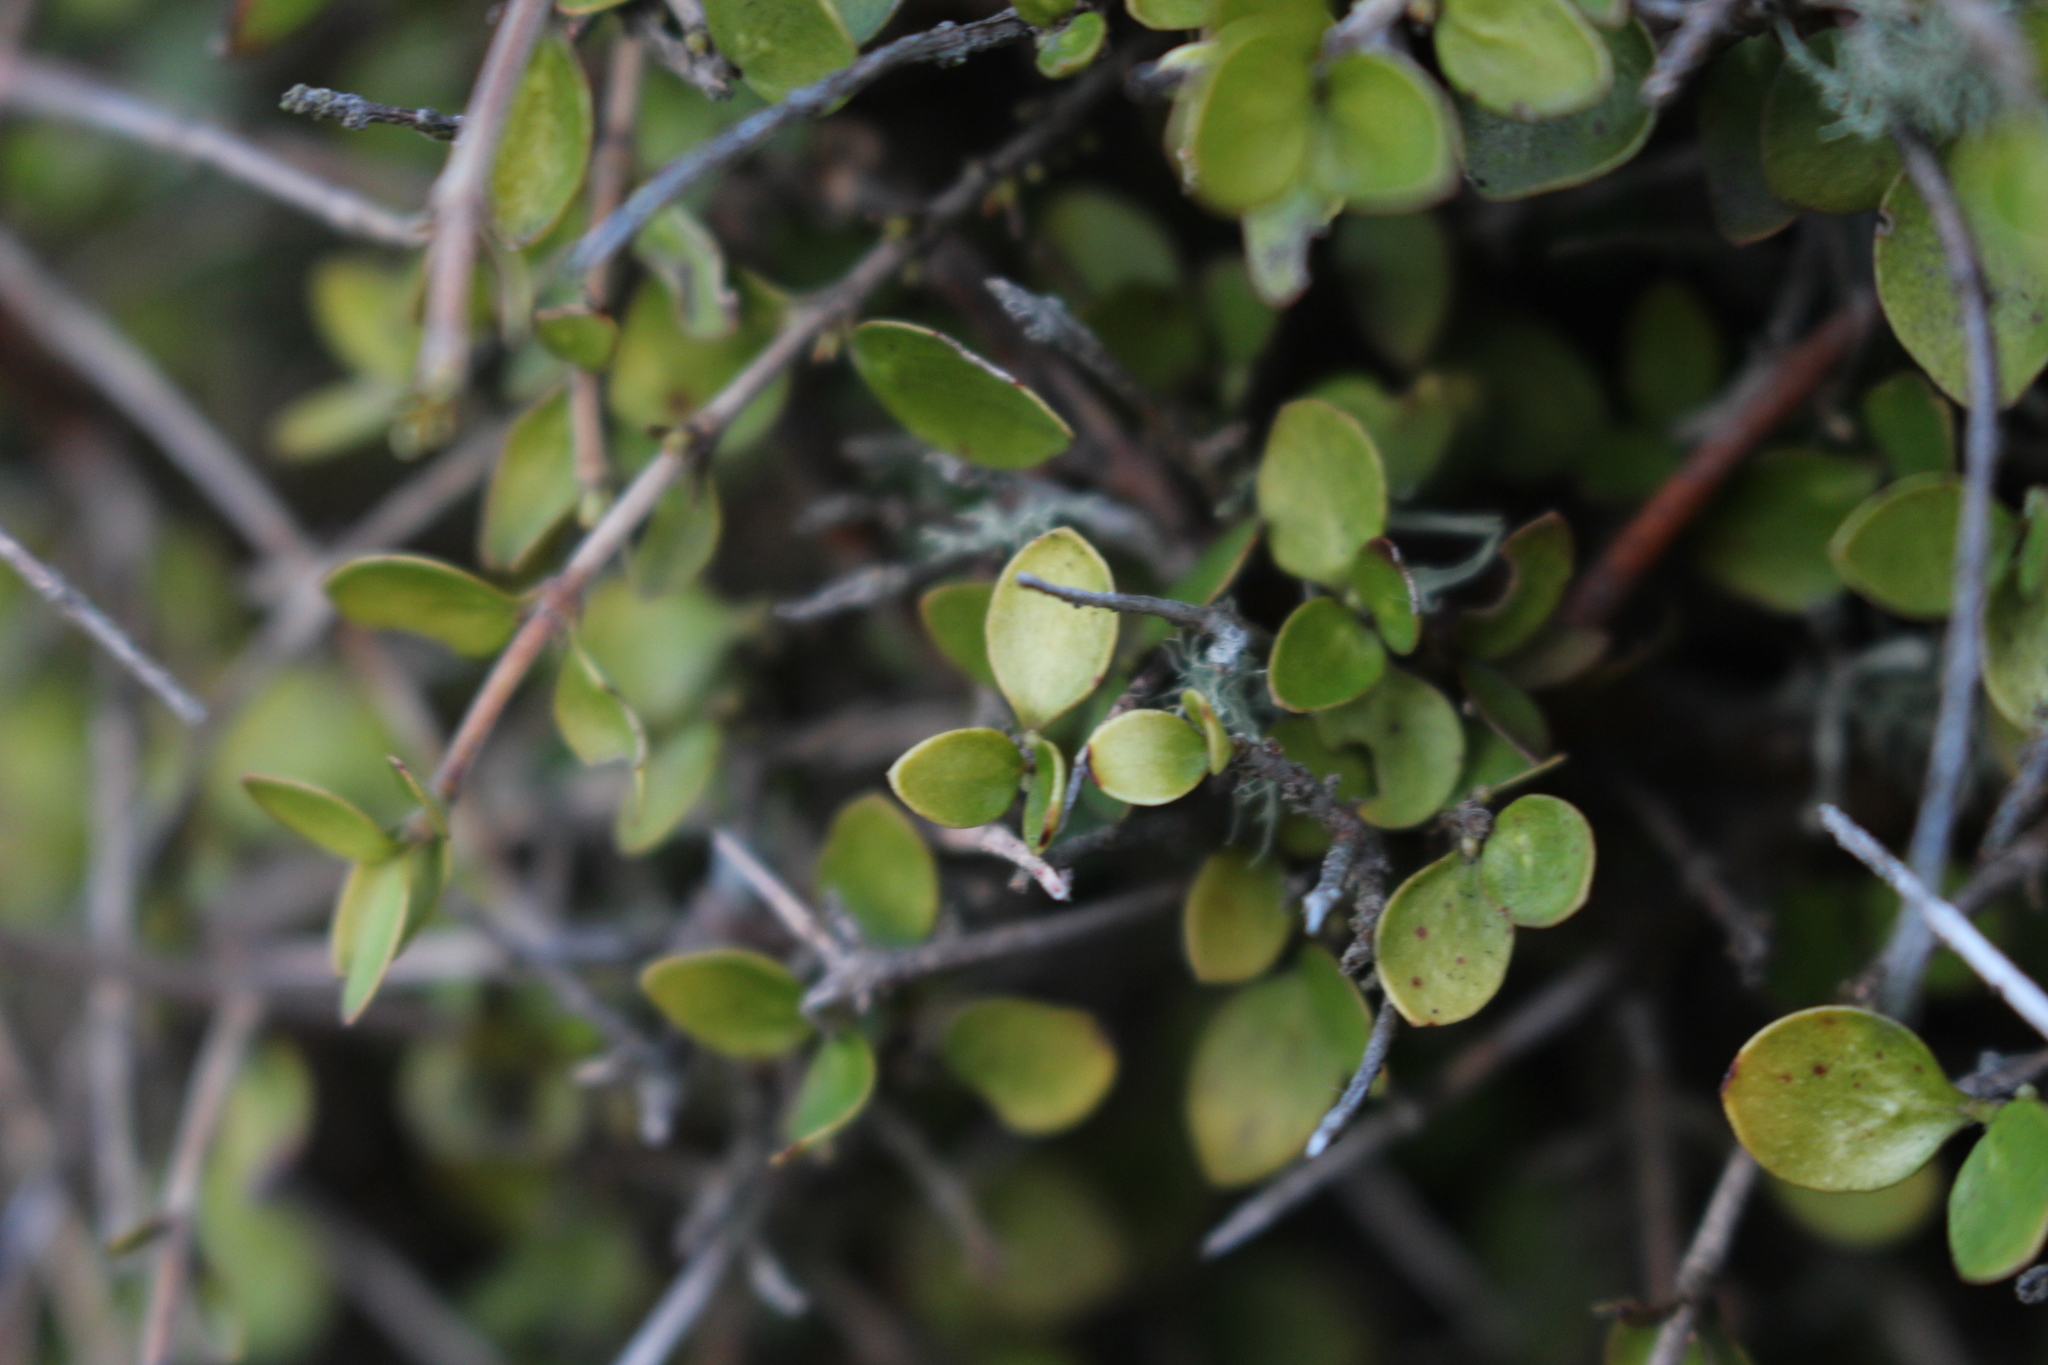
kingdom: Plantae
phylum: Tracheophyta
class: Magnoliopsida
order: Gentianales
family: Rubiaceae
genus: Coprosma
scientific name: Coprosma rhamnoides
